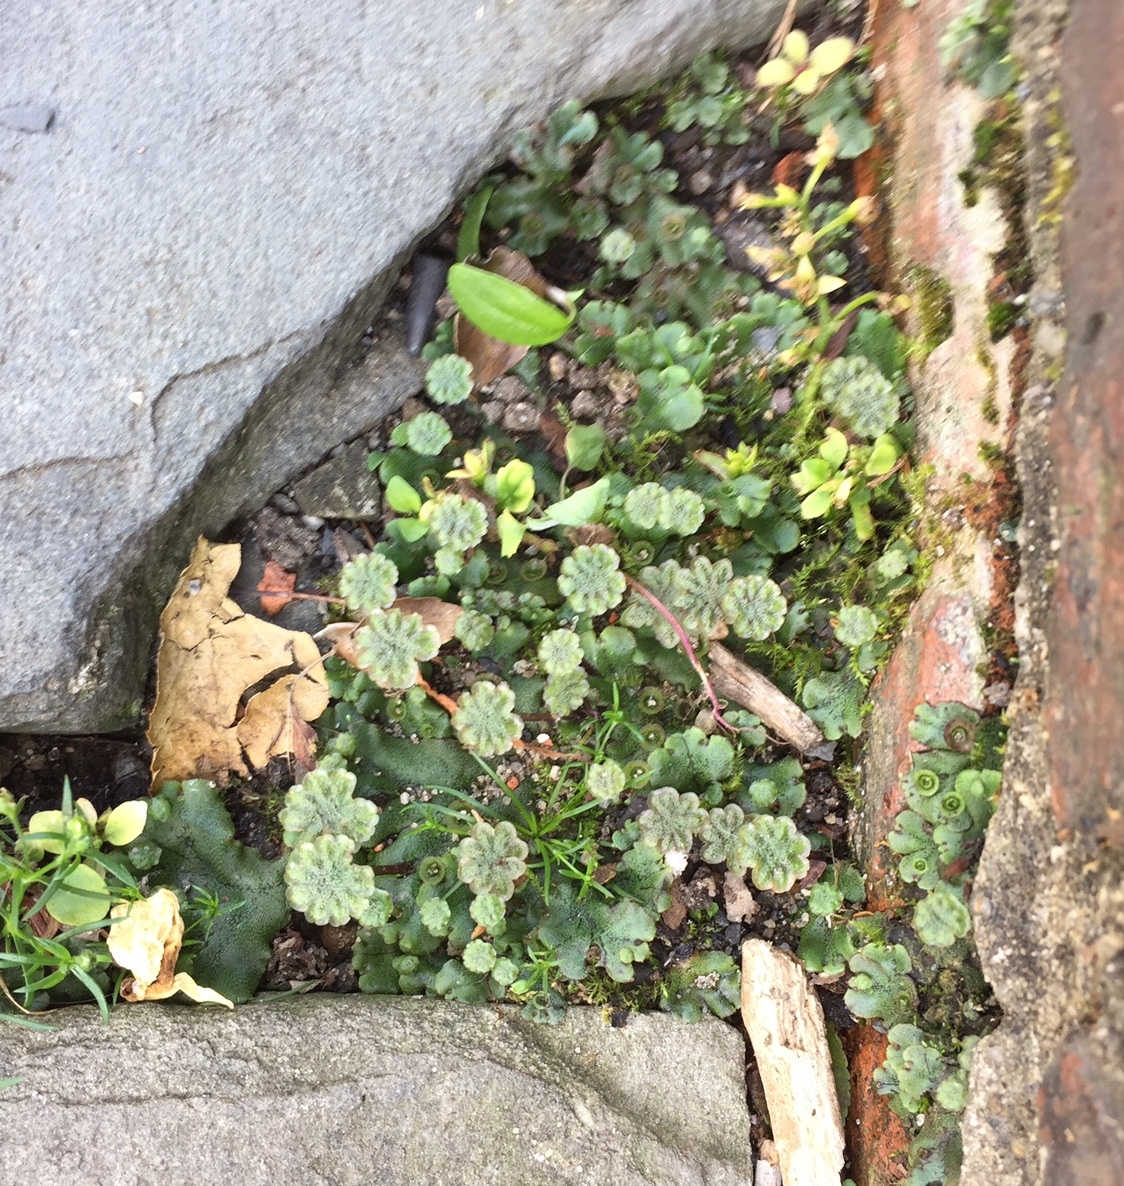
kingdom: Plantae
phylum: Marchantiophyta
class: Marchantiopsida
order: Marchantiales
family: Marchantiaceae
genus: Marchantia
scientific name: Marchantia polymorpha
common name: Common liverwort
